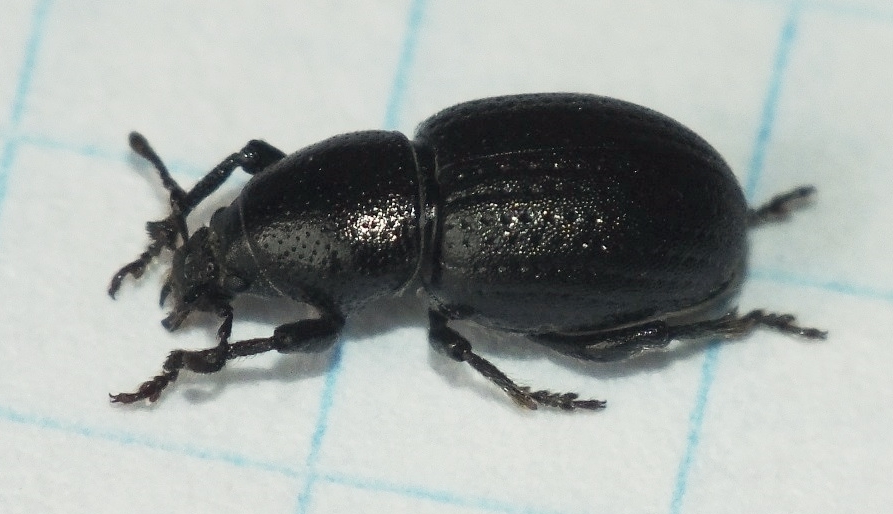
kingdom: Animalia
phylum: Arthropoda
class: Insecta
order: Coleoptera
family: Curculionidae
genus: Psallidium
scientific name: Psallidium maxillosum
